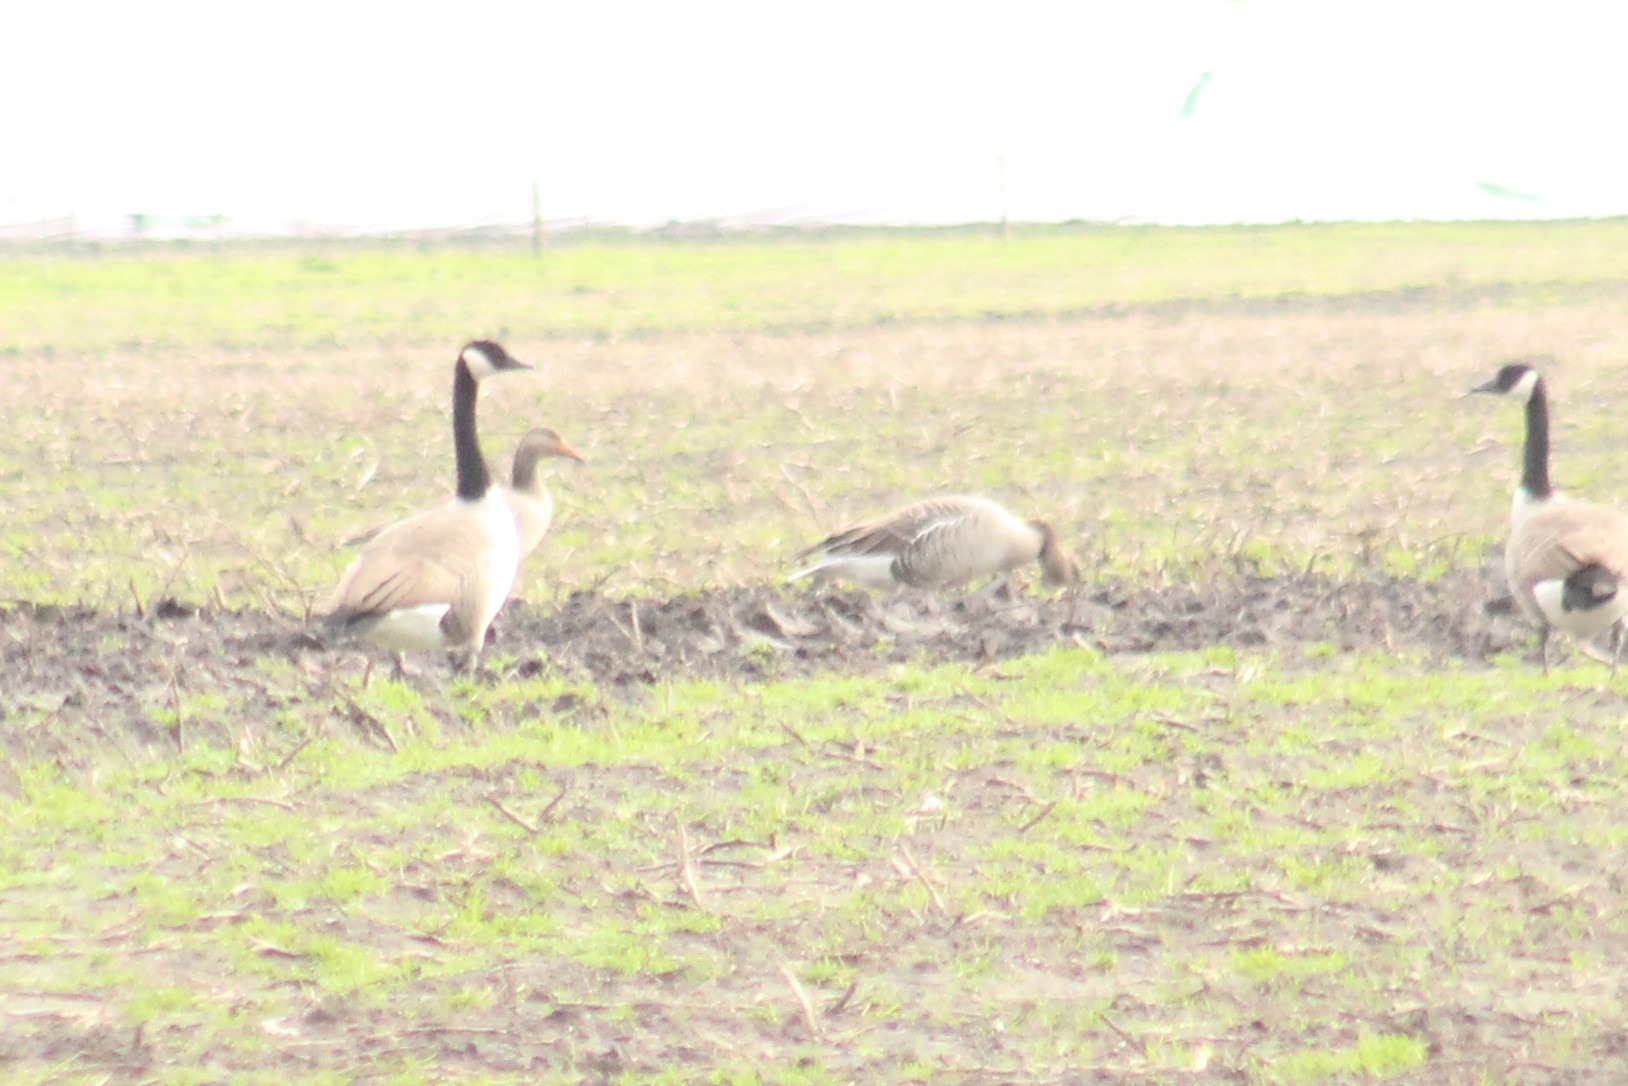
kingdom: Animalia
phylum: Chordata
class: Aves
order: Anseriformes
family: Anatidae
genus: Anser
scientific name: Anser anser
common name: Greylag goose
